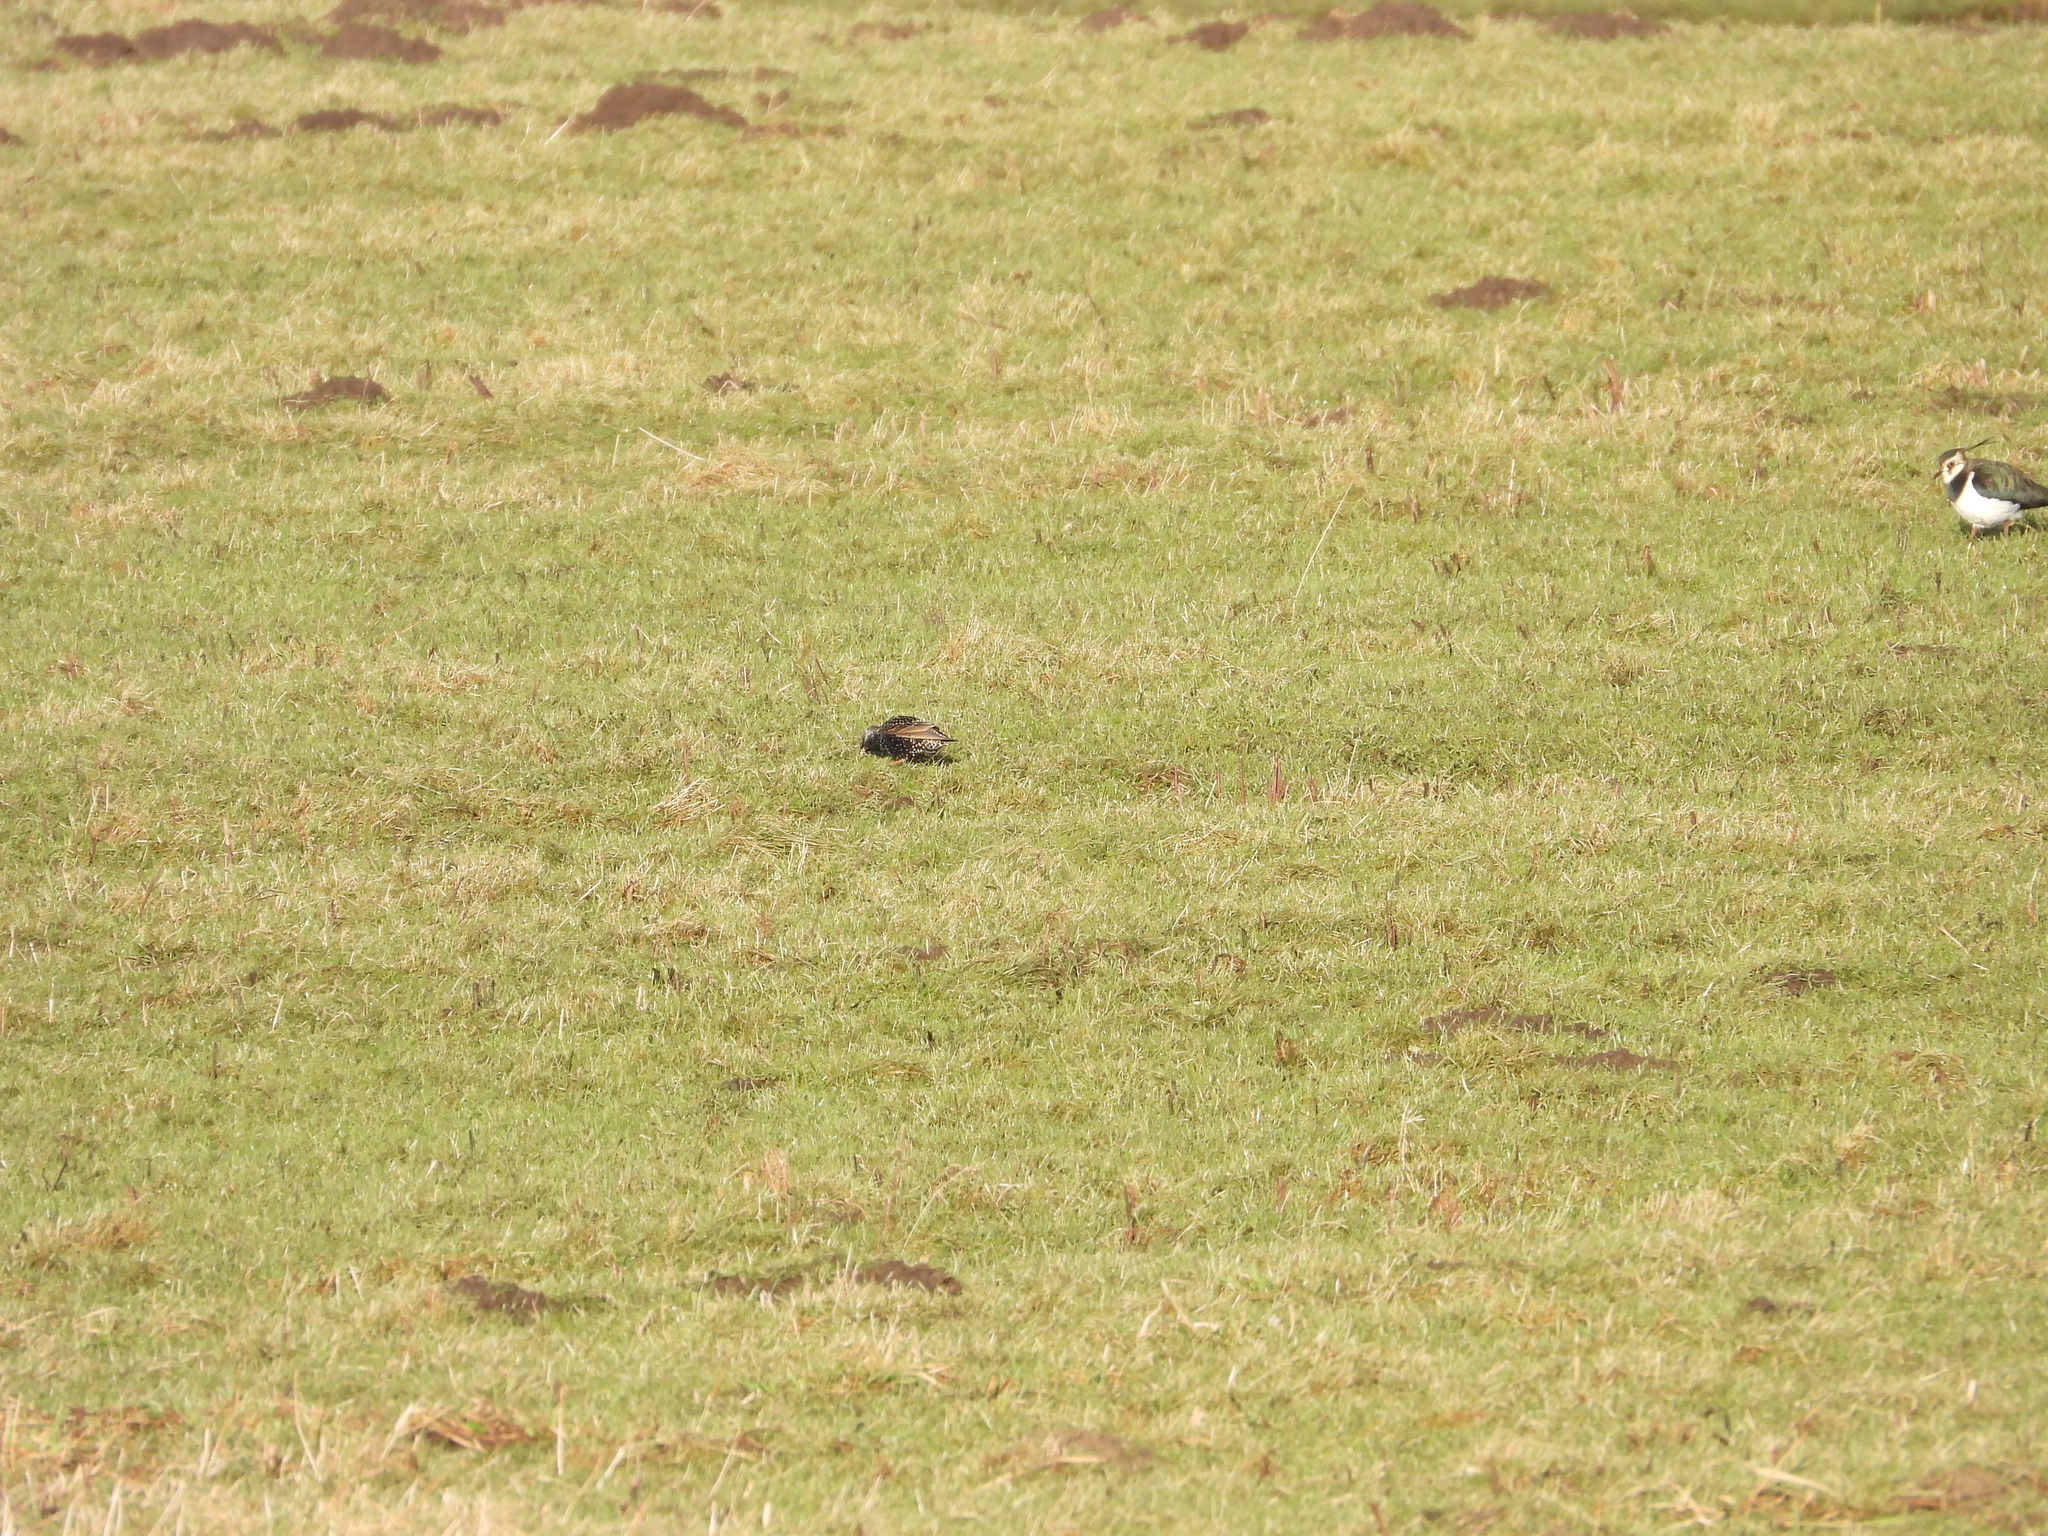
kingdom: Animalia
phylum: Chordata
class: Aves
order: Passeriformes
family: Sturnidae
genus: Sturnus
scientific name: Sturnus vulgaris
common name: Common starling
